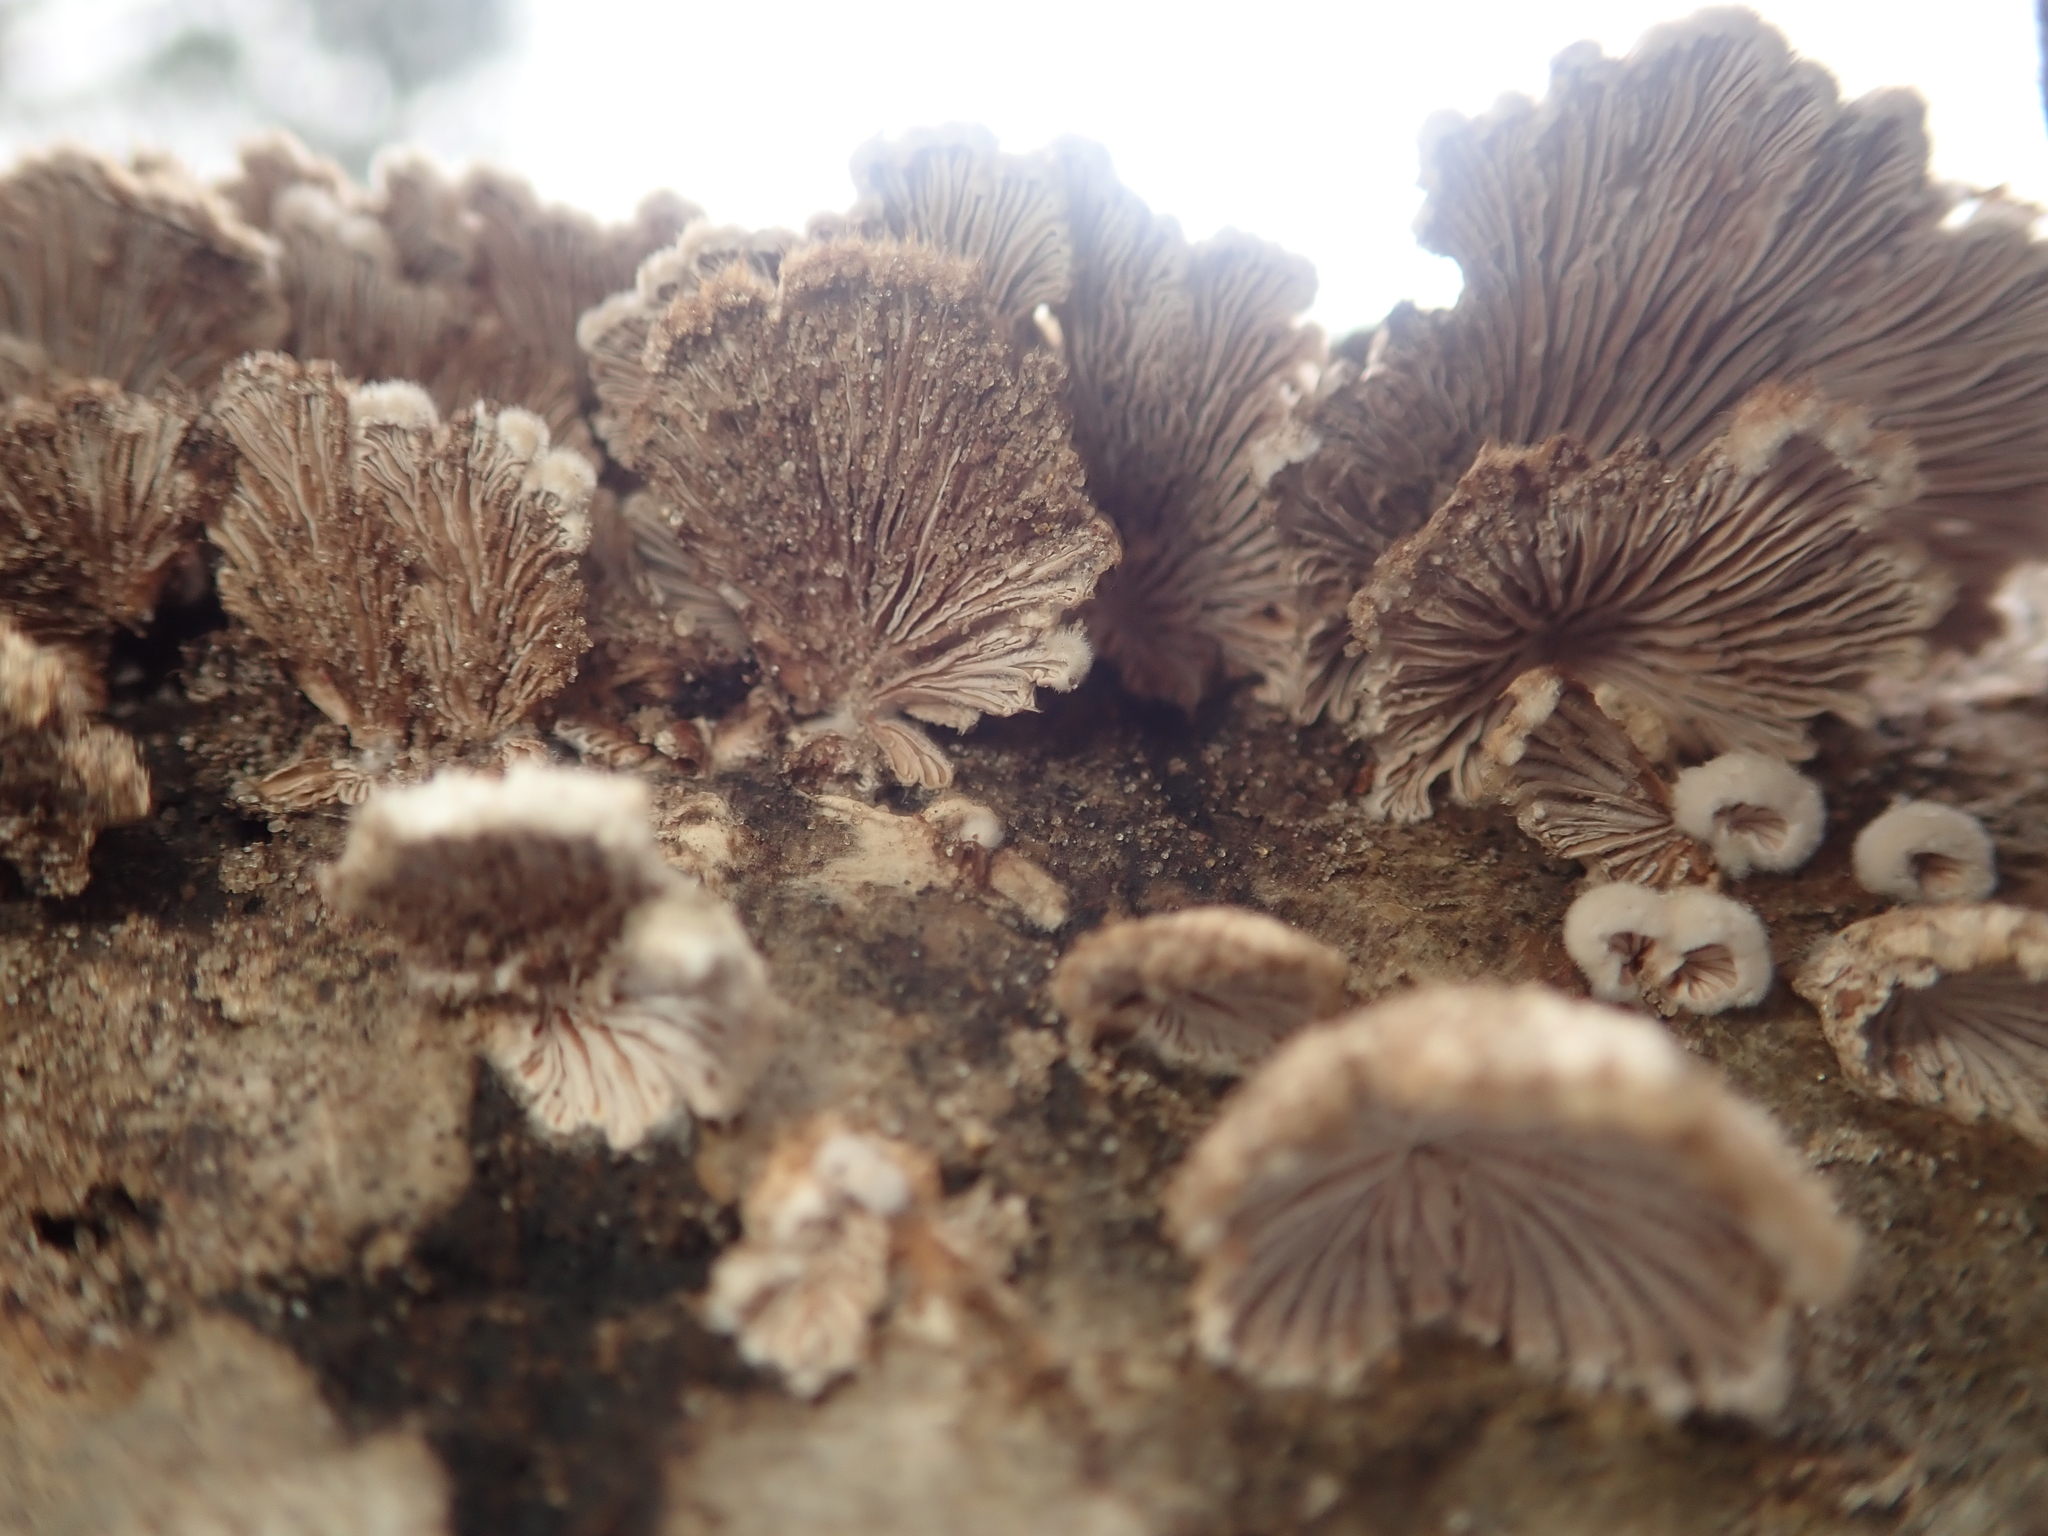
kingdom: Fungi
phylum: Basidiomycota
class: Agaricomycetes
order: Agaricales
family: Schizophyllaceae
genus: Schizophyllum
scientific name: Schizophyllum commune
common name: Common porecrust
